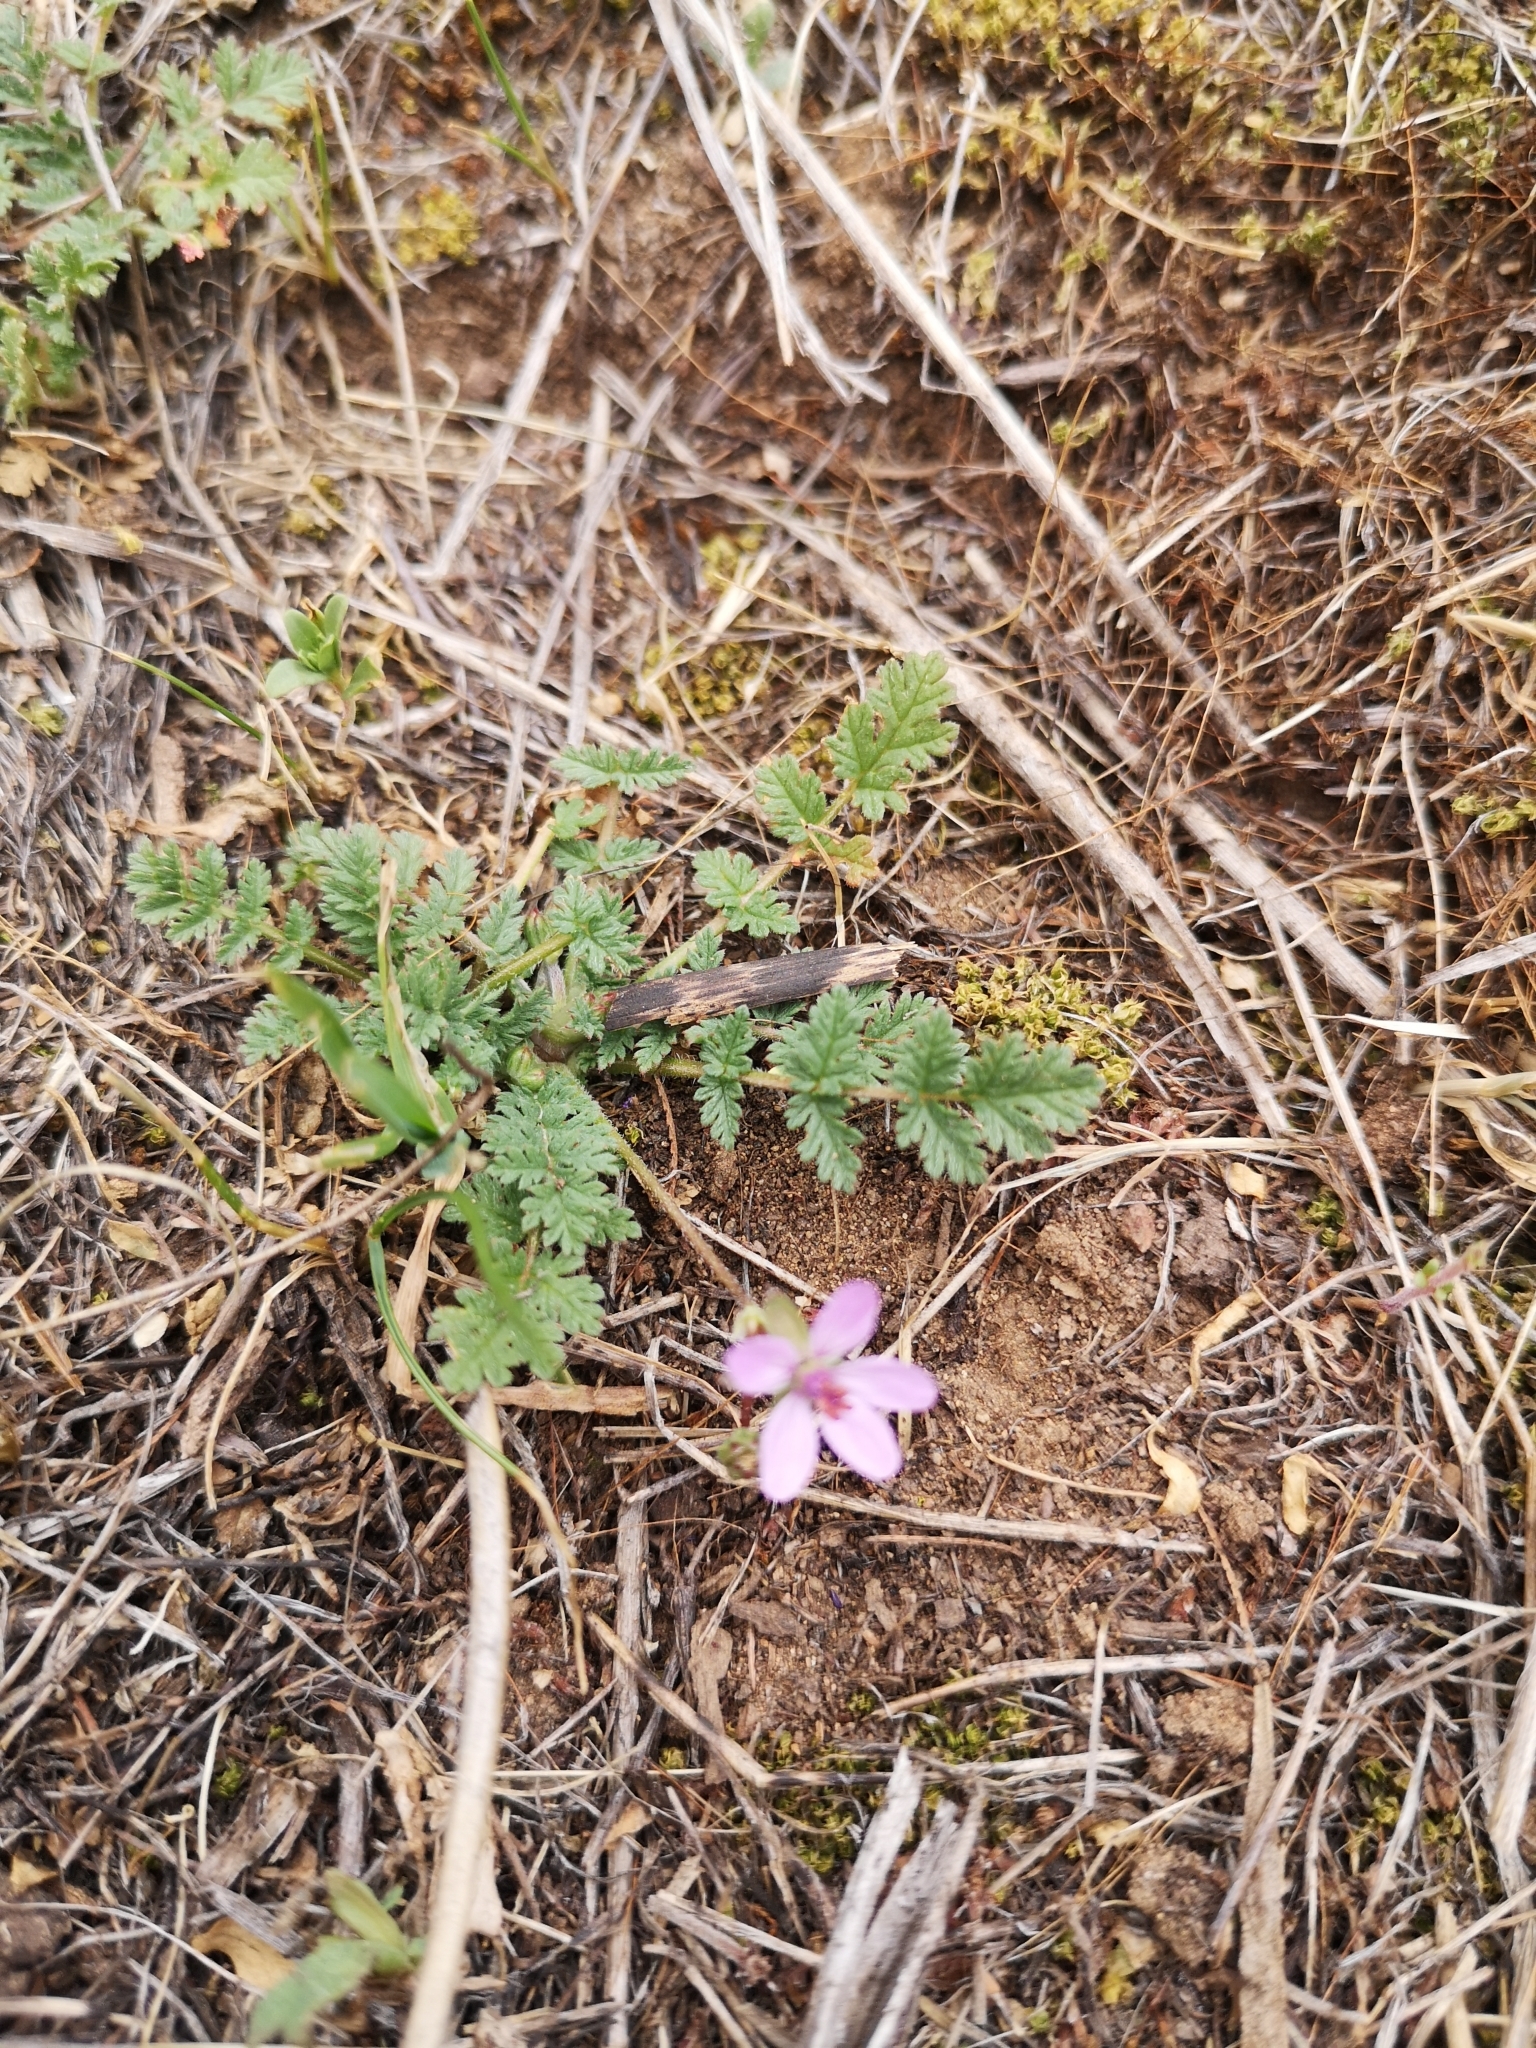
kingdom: Plantae
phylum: Tracheophyta
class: Magnoliopsida
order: Geraniales
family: Geraniaceae
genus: Erodium
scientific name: Erodium cicutarium
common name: Common stork's-bill
